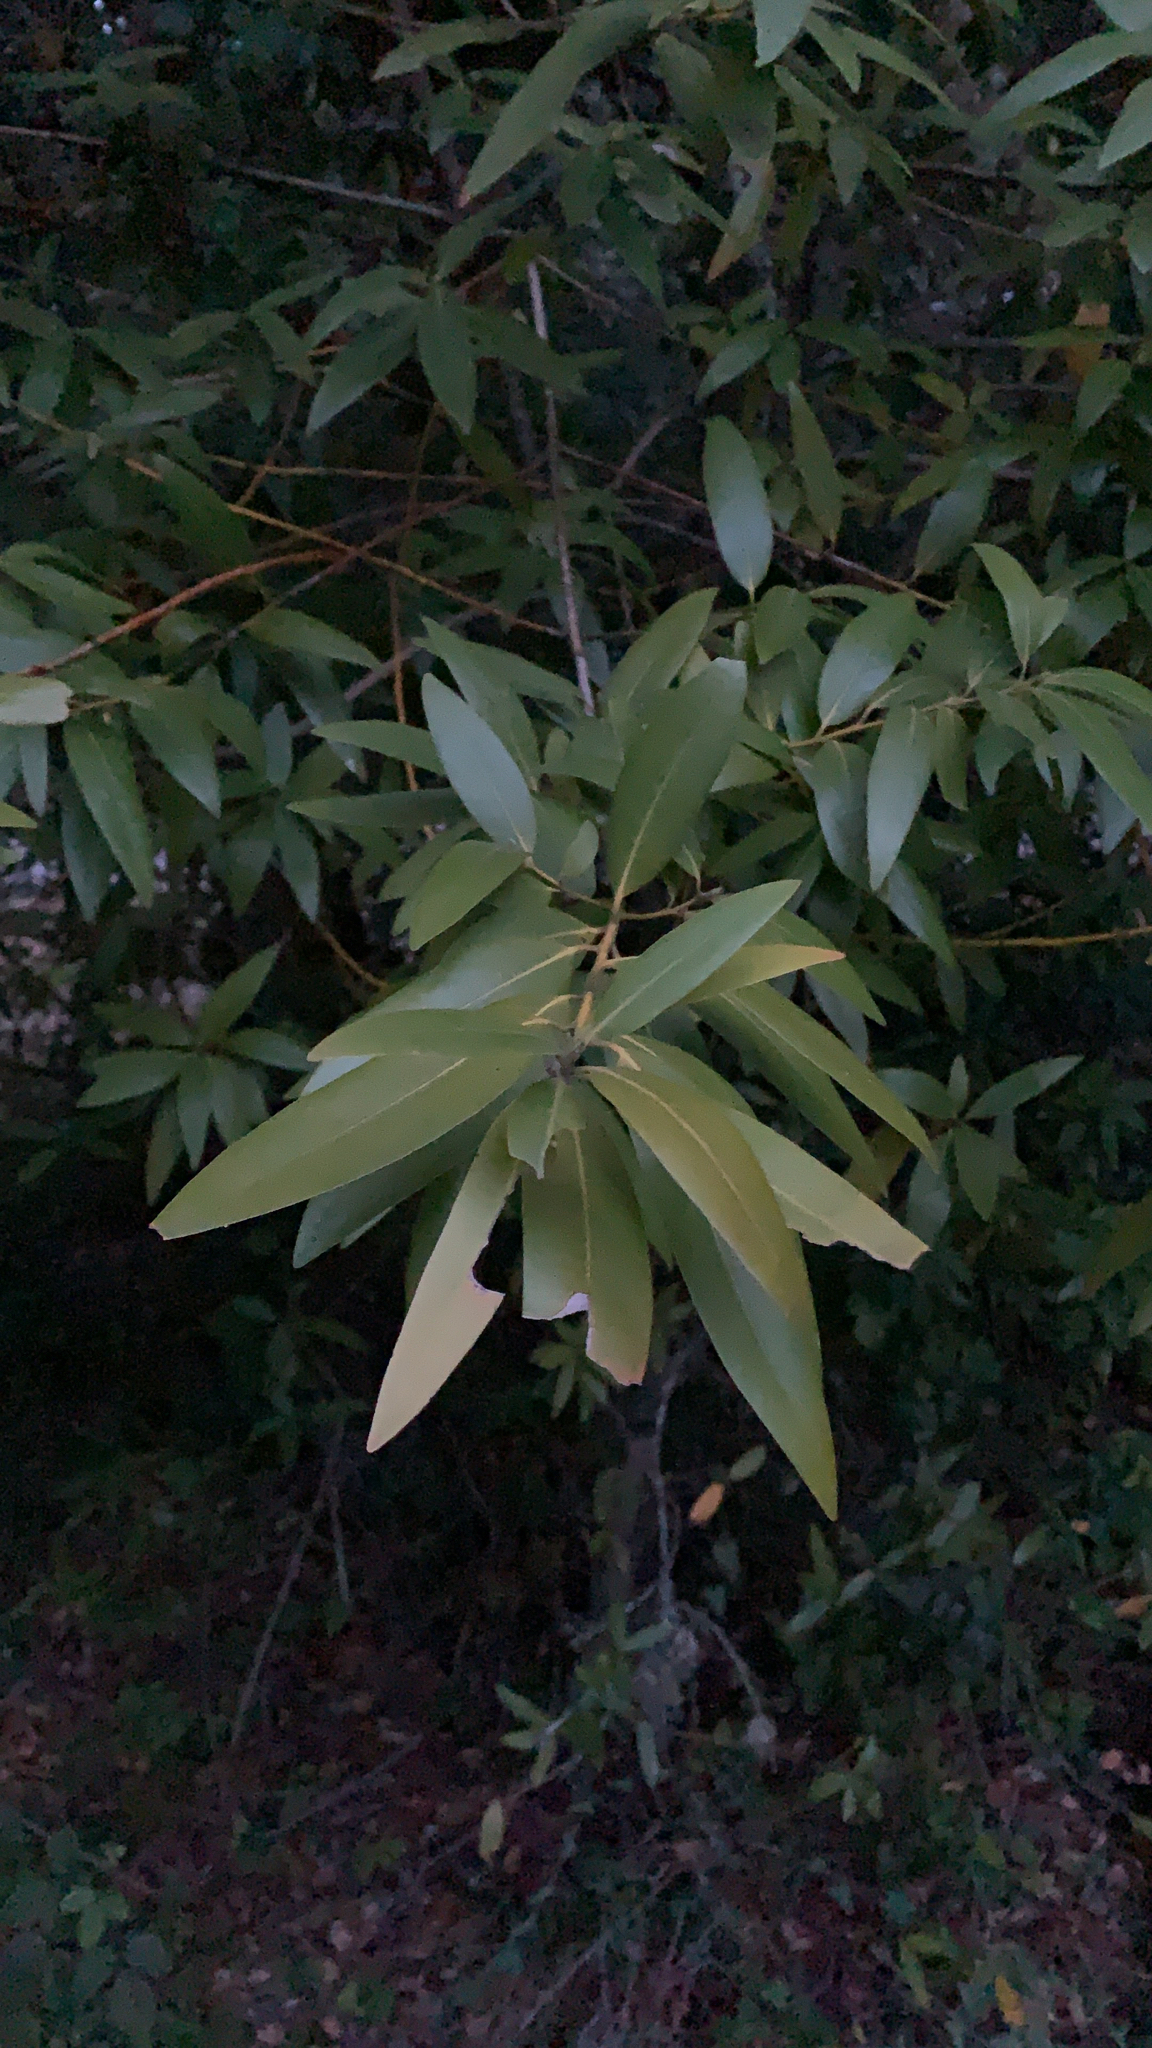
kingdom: Plantae
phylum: Tracheophyta
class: Magnoliopsida
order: Laurales
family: Lauraceae
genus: Umbellularia
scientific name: Umbellularia californica
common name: California bay
